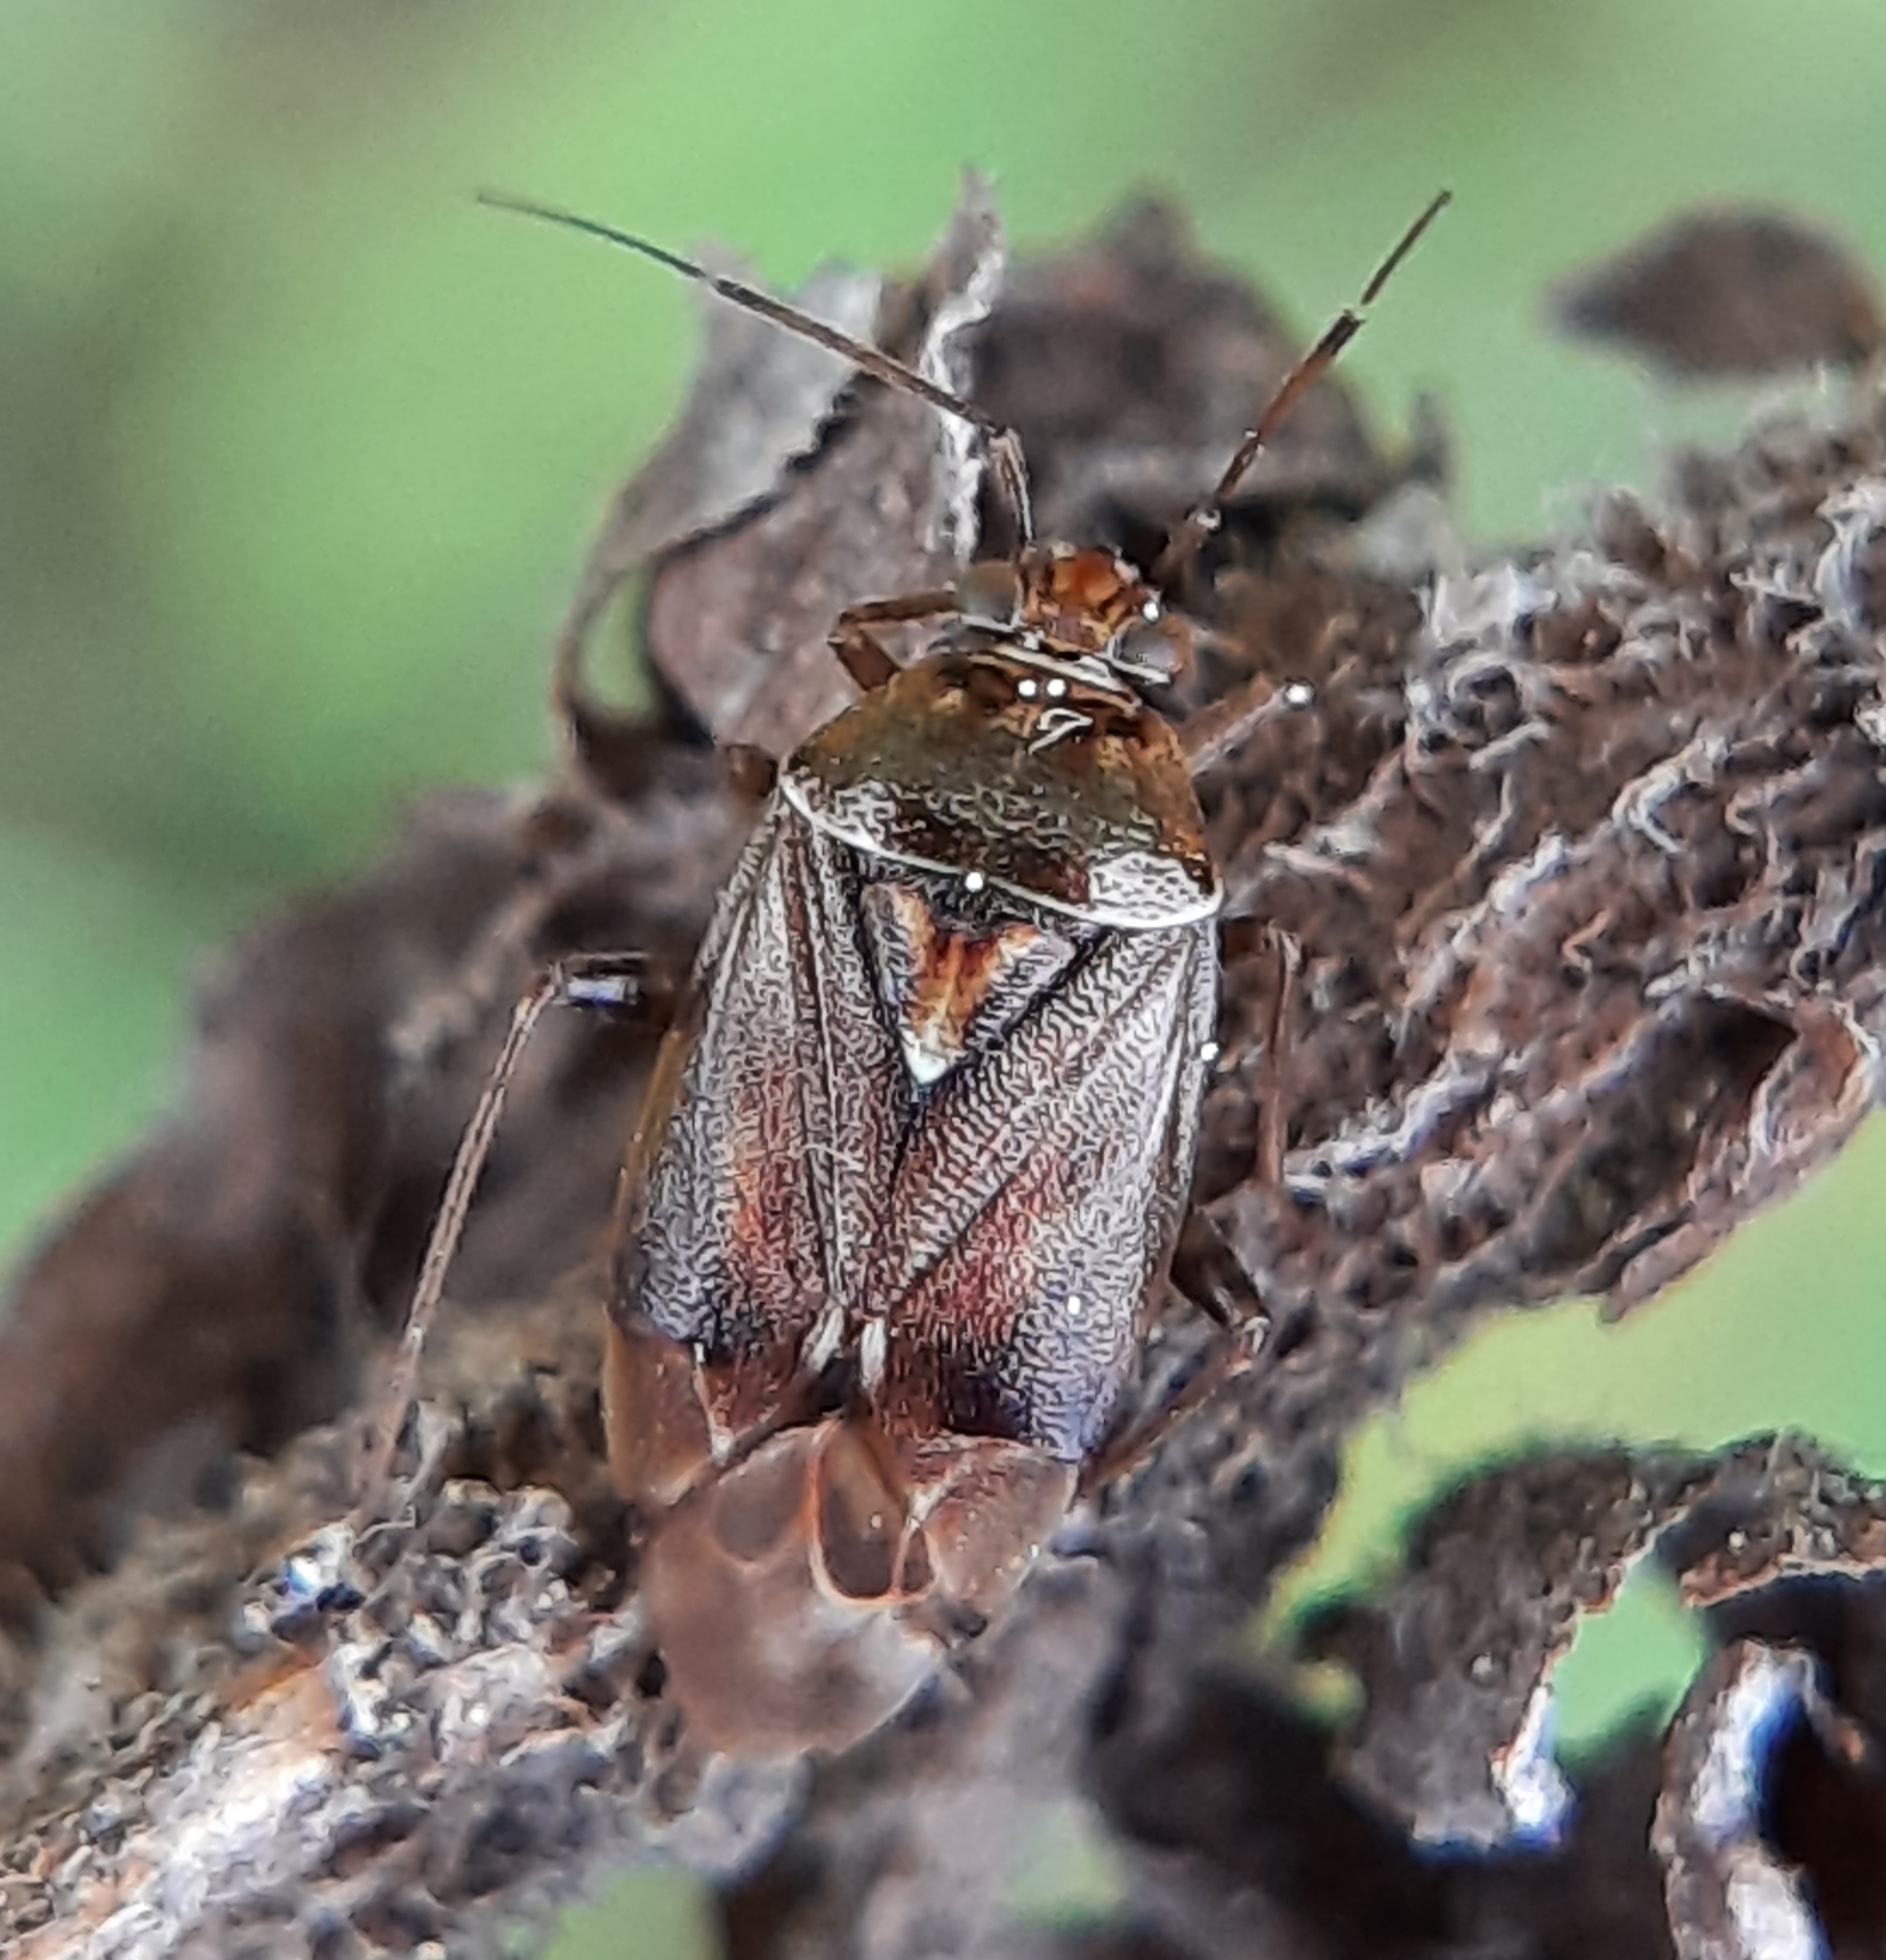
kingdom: Animalia
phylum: Arthropoda
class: Insecta
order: Hemiptera
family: Miridae
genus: Lygus
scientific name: Lygus lineolaris
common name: North american tarnished plant bug
